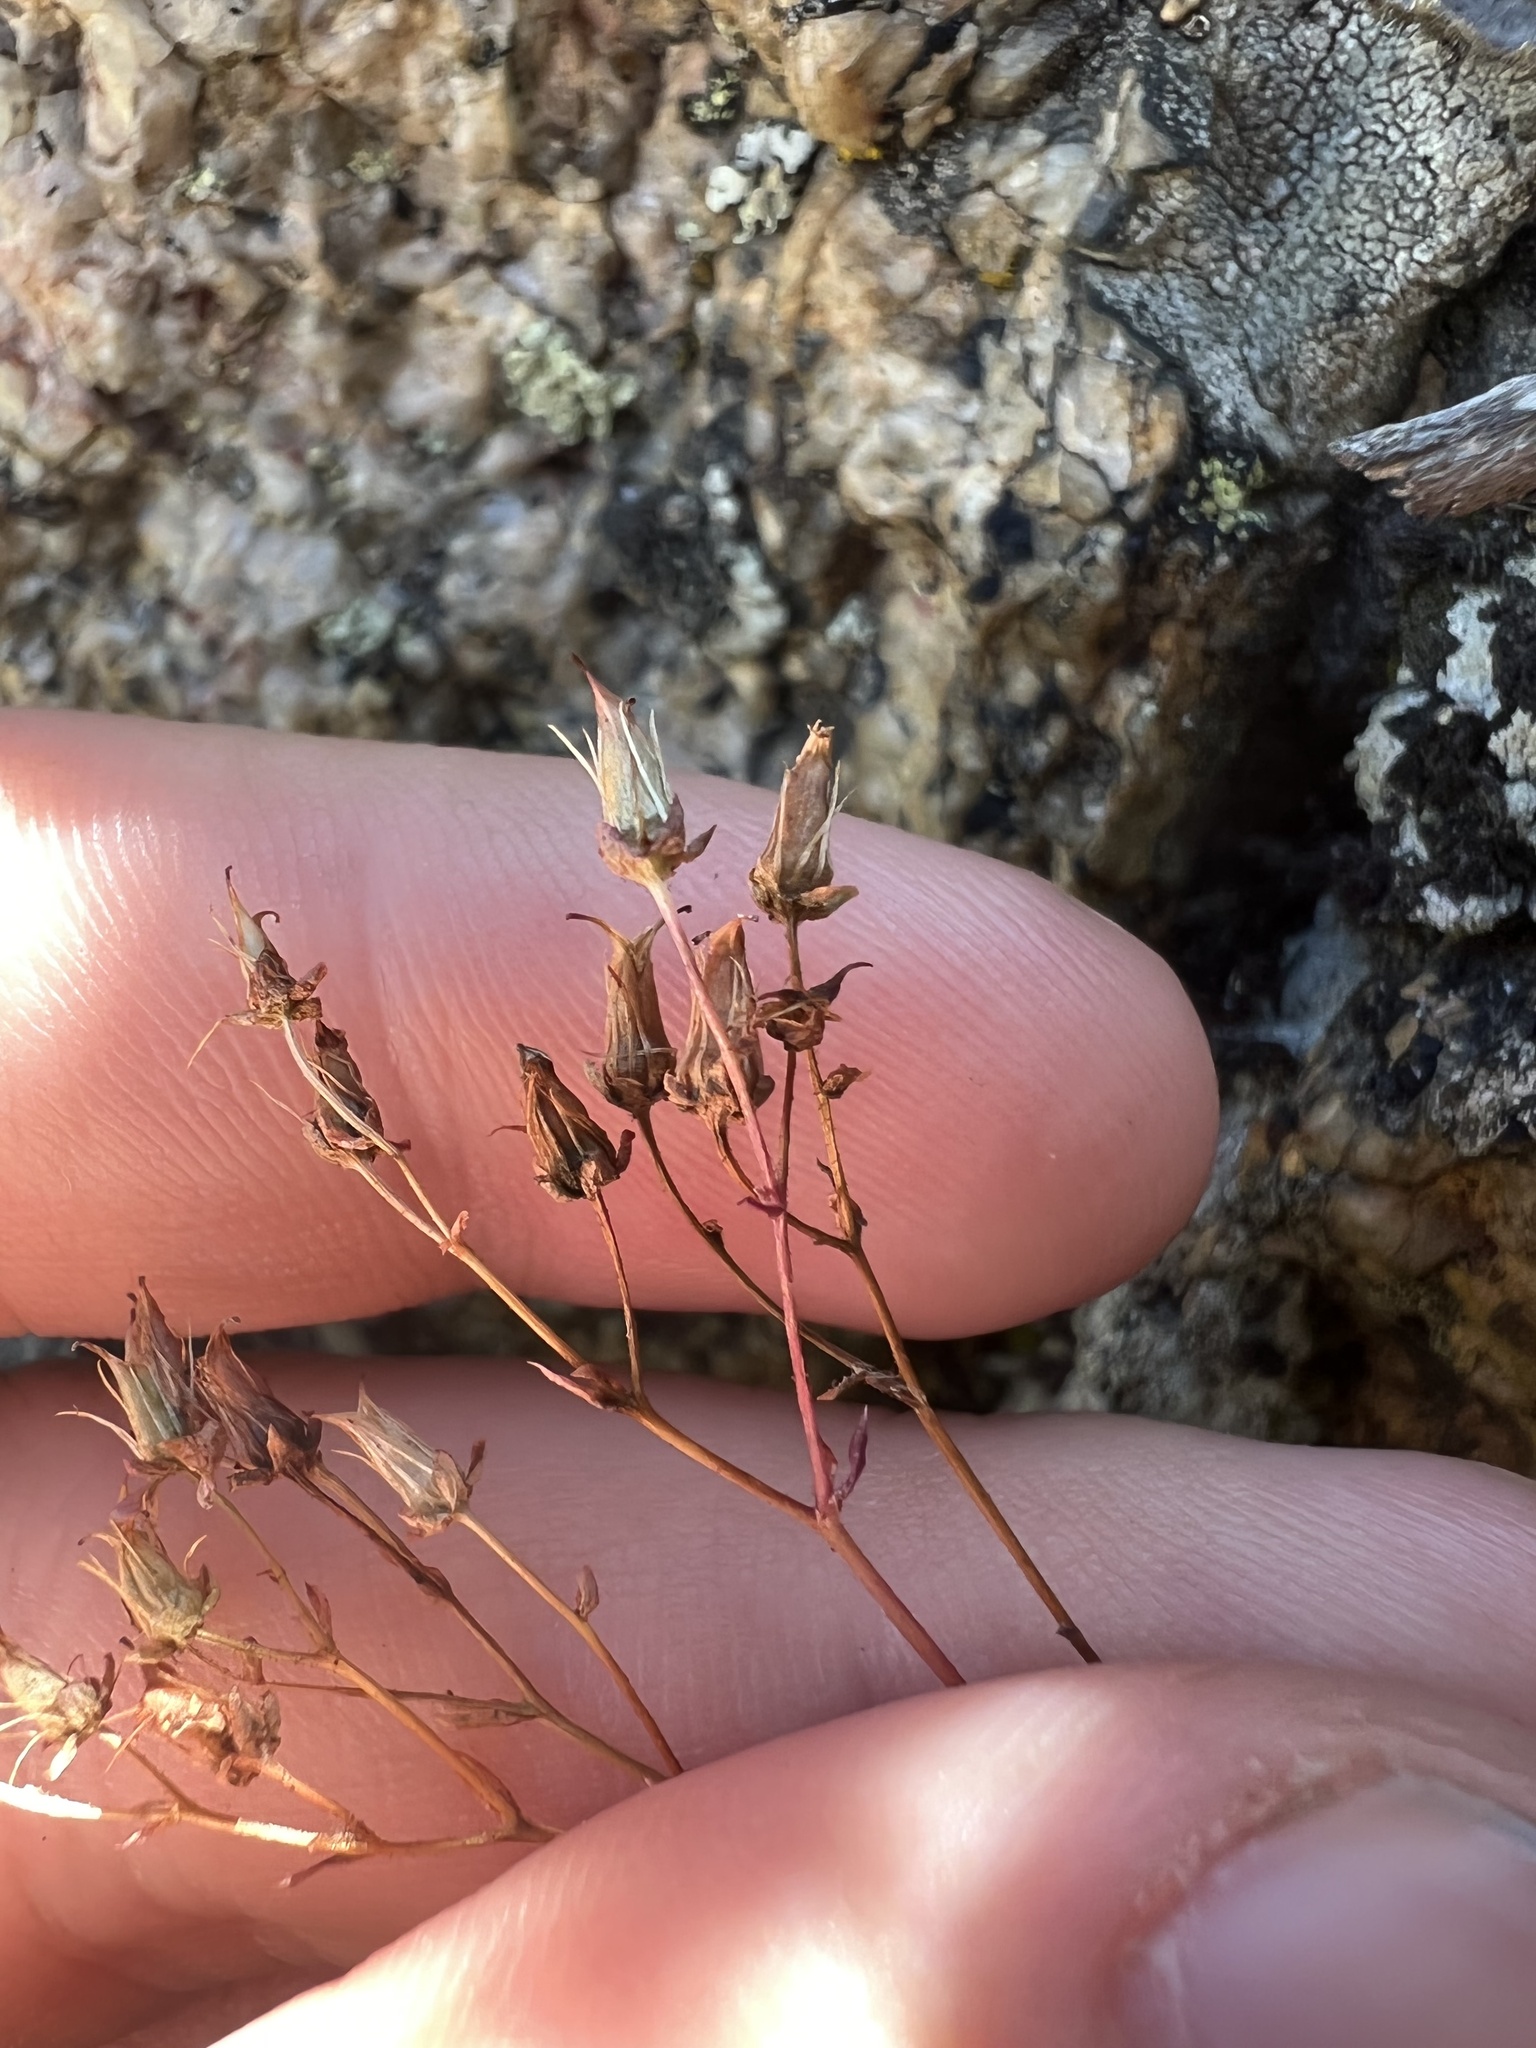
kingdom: Plantae
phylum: Tracheophyta
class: Magnoliopsida
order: Saxifragales
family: Saxifragaceae
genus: Saxifraga
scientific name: Saxifraga bronchialis
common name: Matted saxifrage
